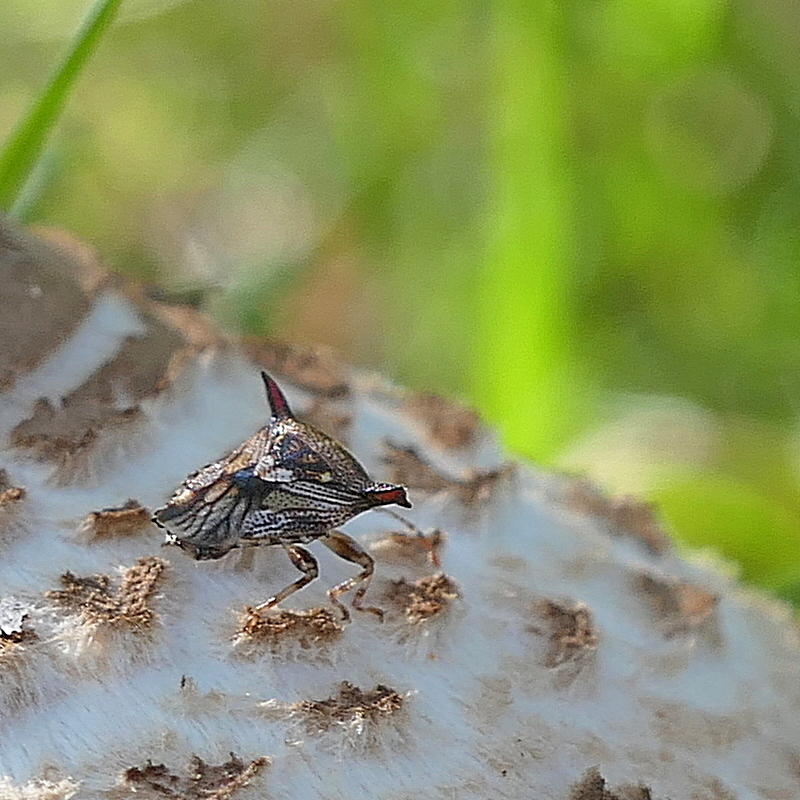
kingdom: Animalia
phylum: Arthropoda
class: Insecta
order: Hemiptera
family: Acanthosomatidae
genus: Panaetius
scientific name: Panaetius trabifer
